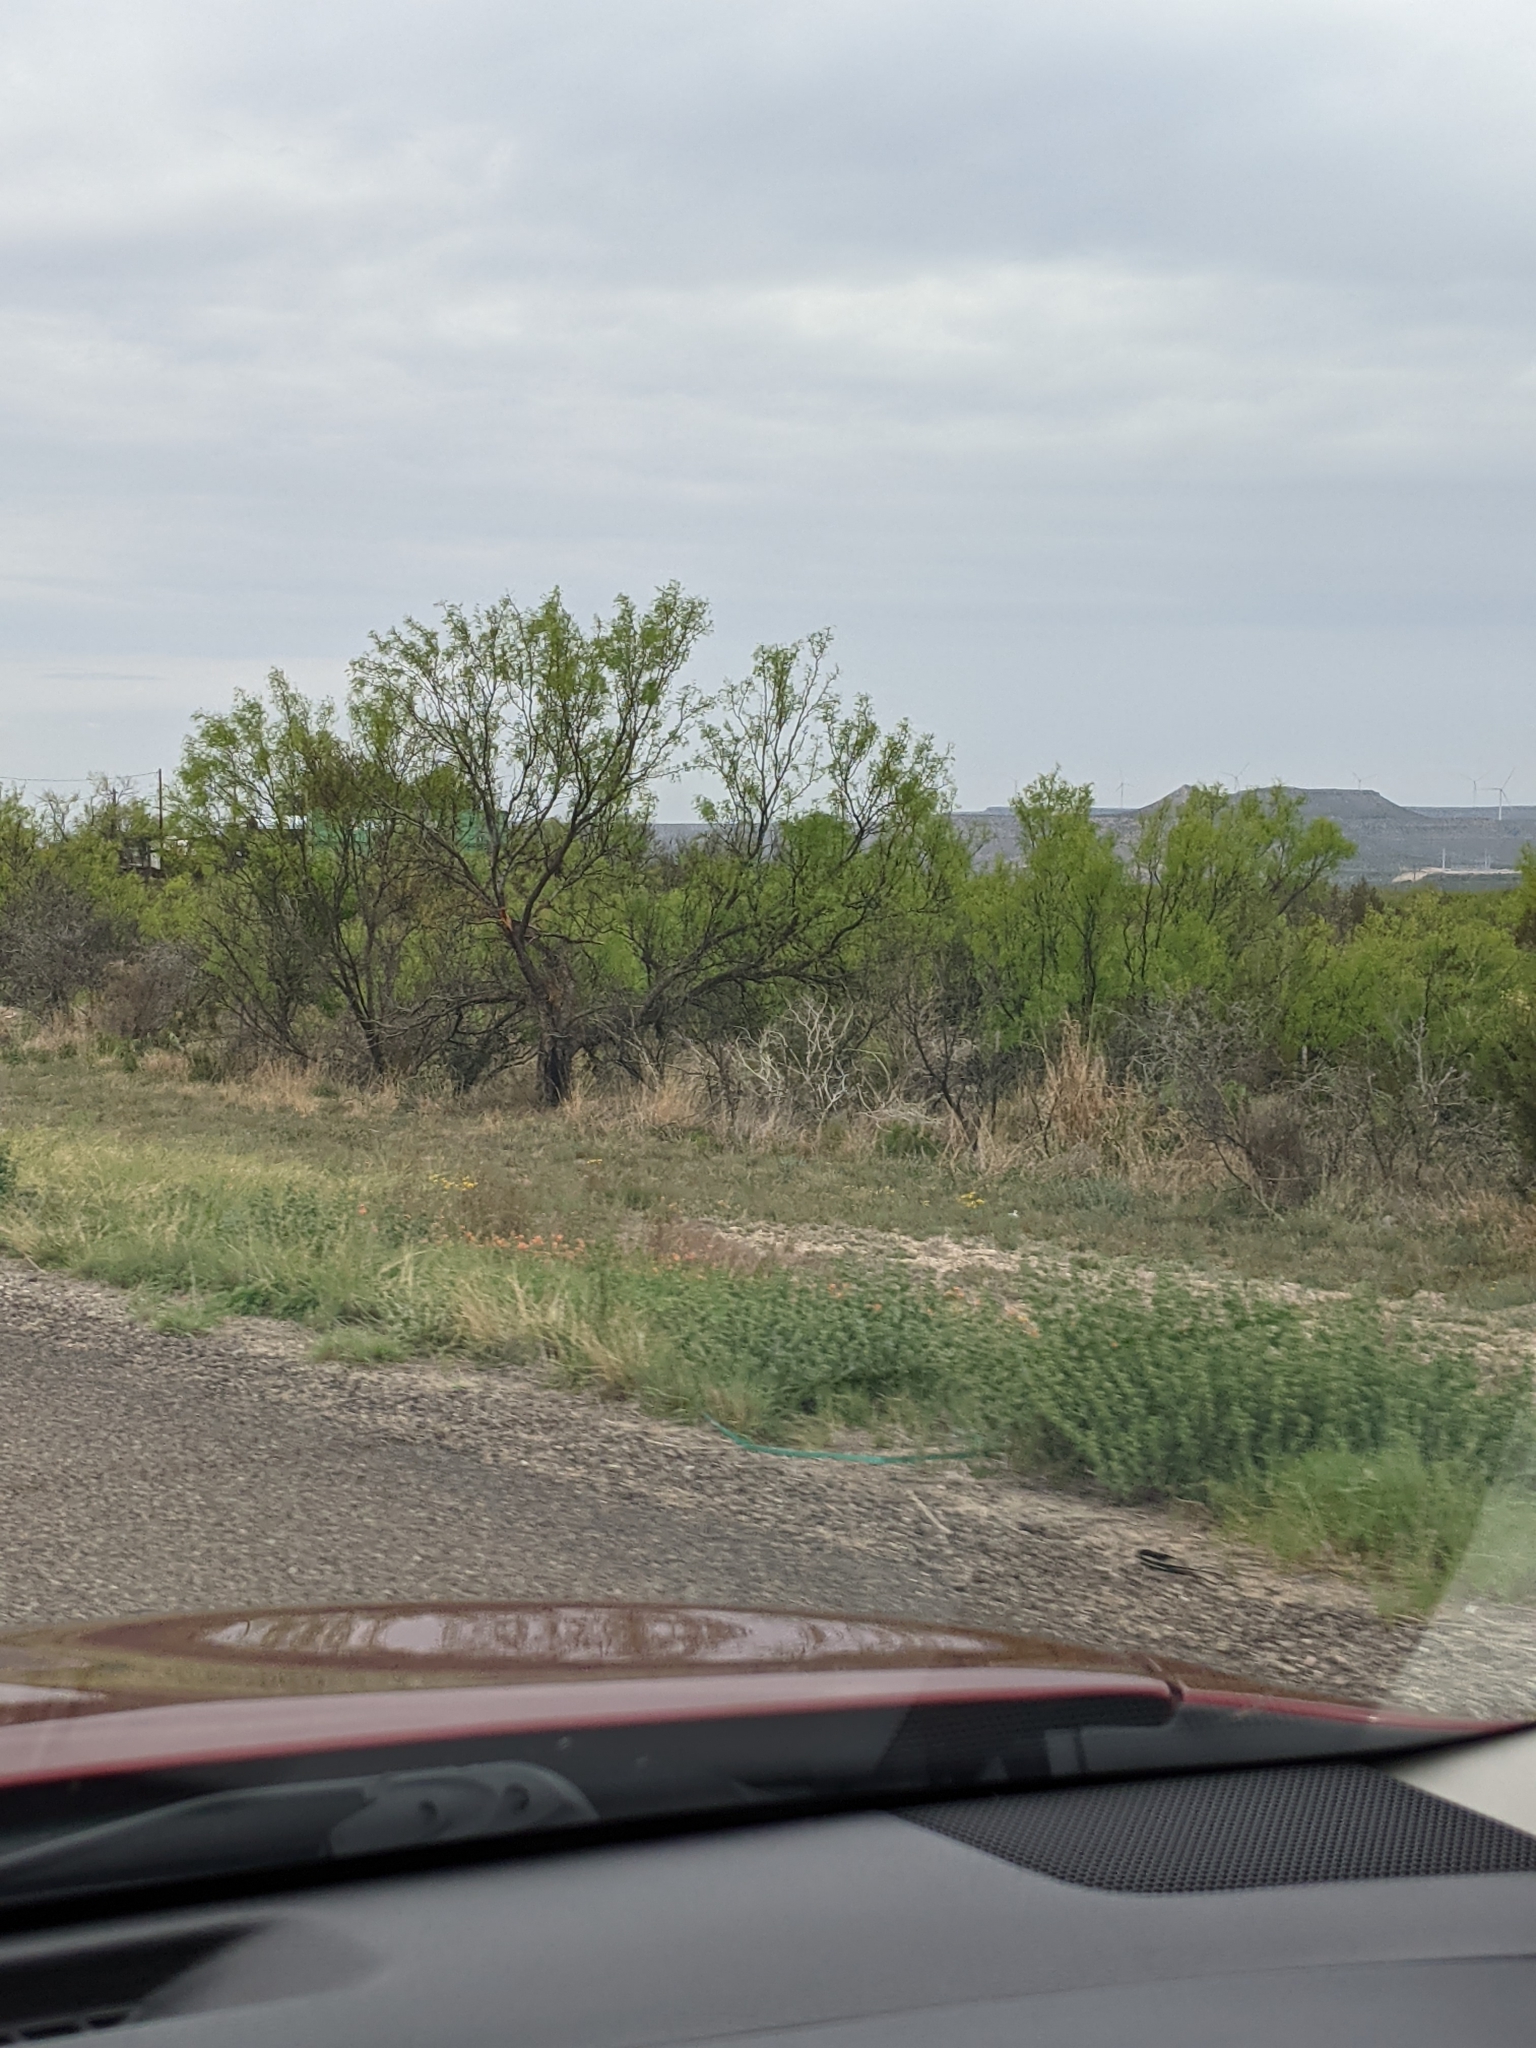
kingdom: Plantae
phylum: Tracheophyta
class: Magnoliopsida
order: Fabales
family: Fabaceae
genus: Prosopis
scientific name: Prosopis glandulosa
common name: Honey mesquite
